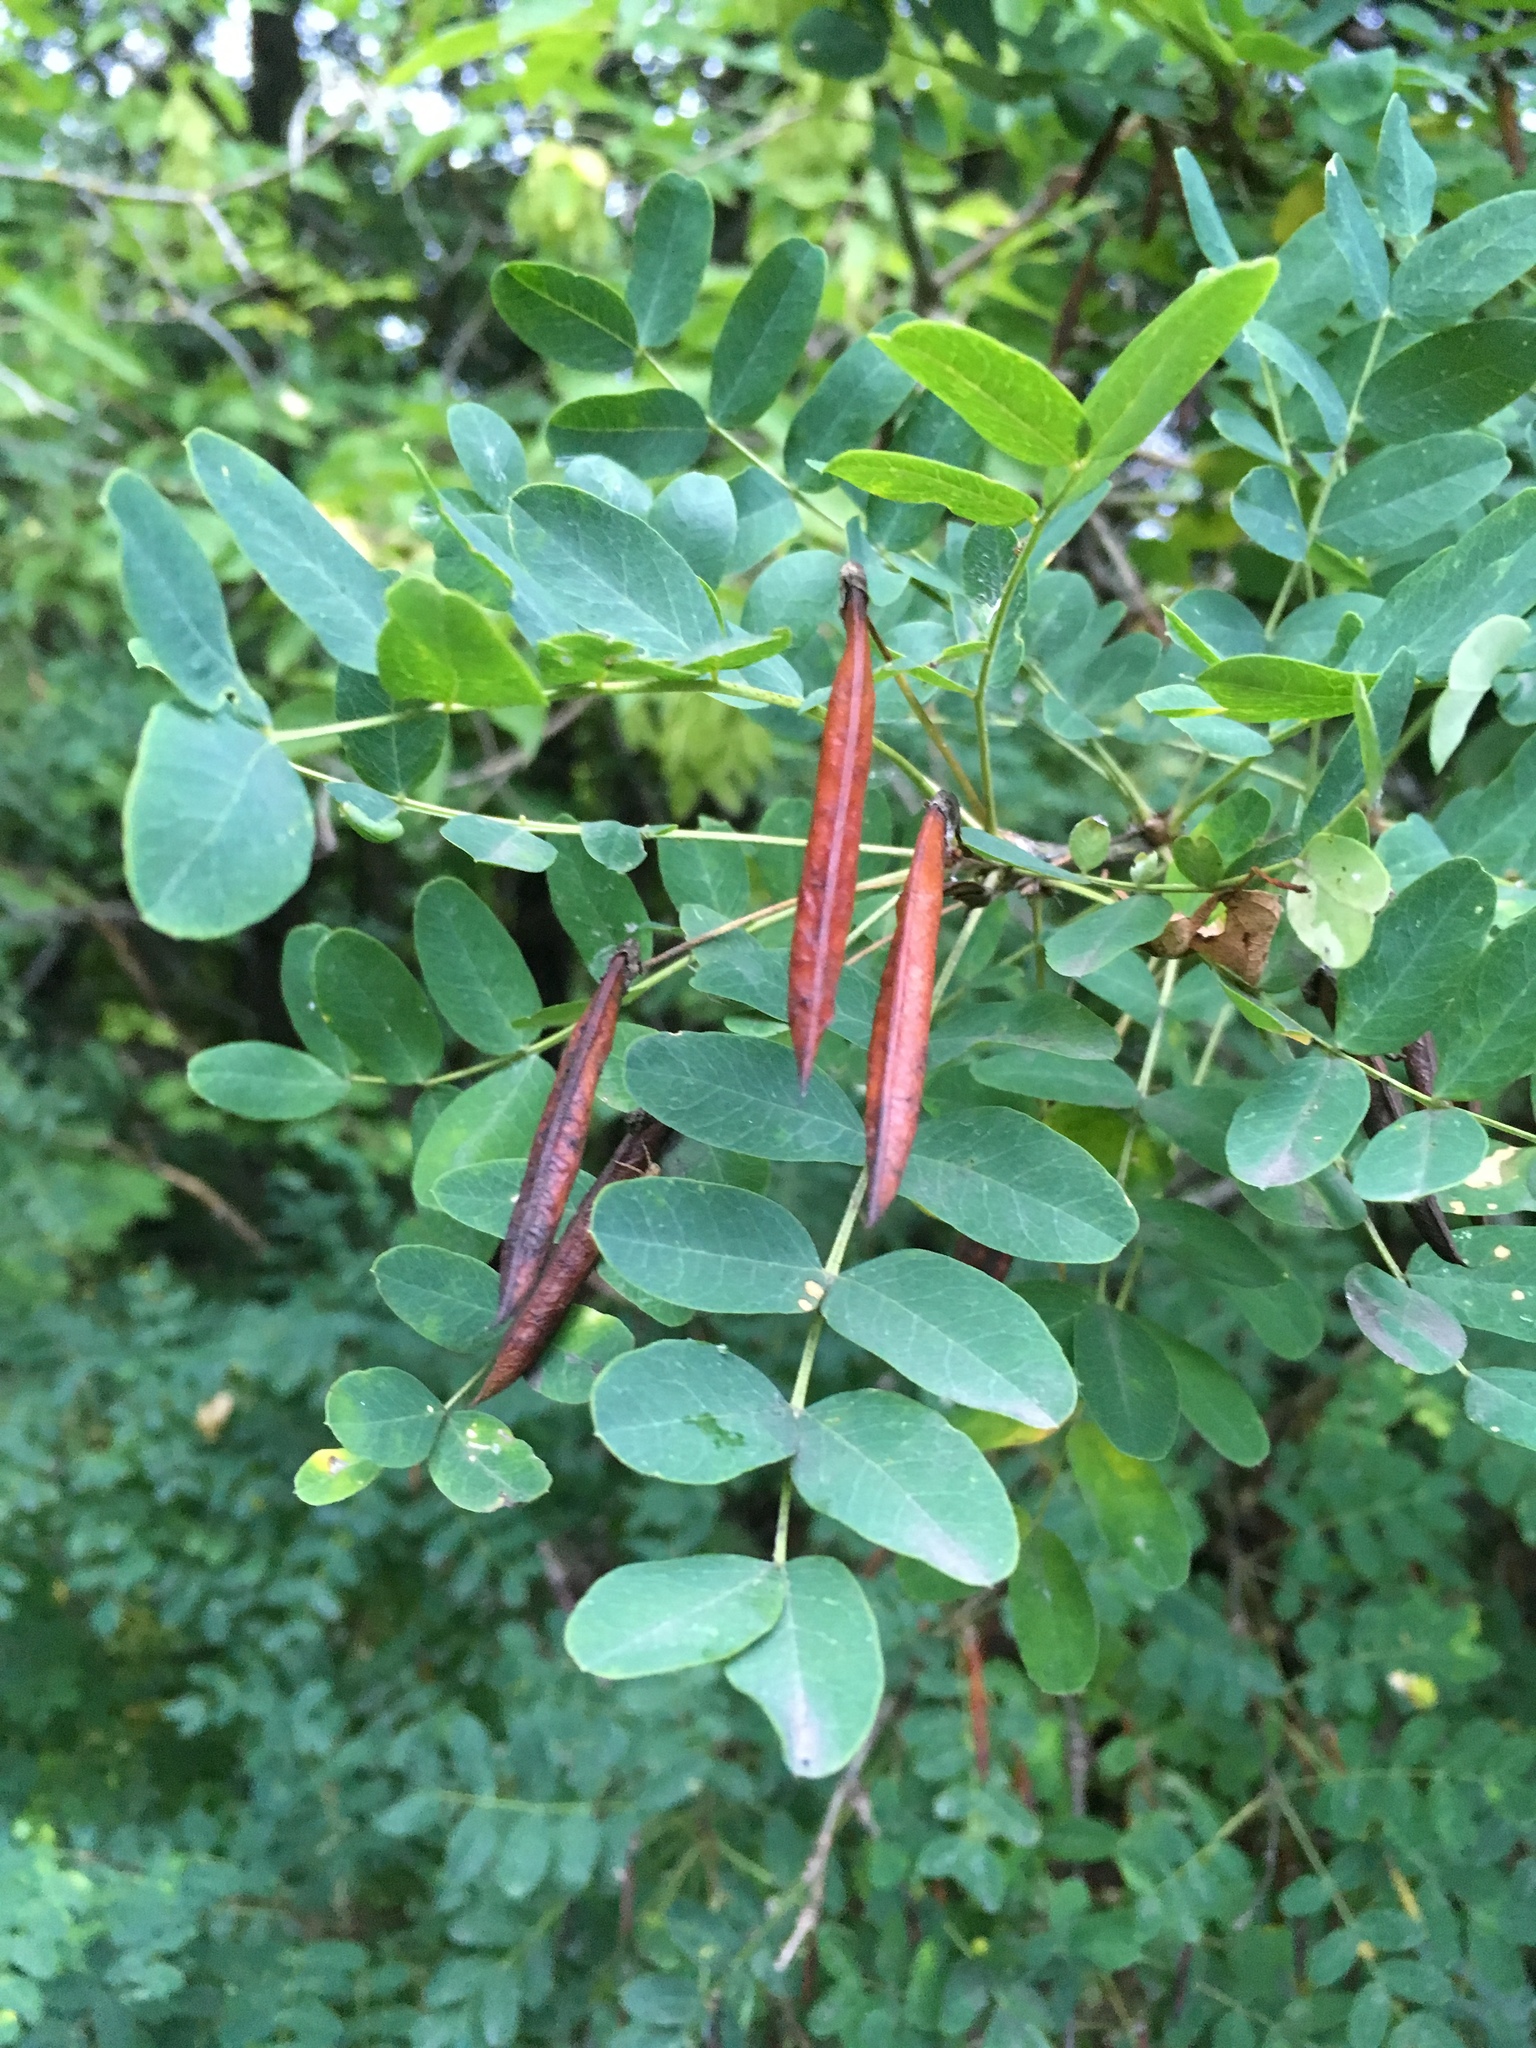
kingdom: Plantae
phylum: Tracheophyta
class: Magnoliopsida
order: Fabales
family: Fabaceae
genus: Caragana
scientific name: Caragana arborescens
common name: Siberian peashrub
